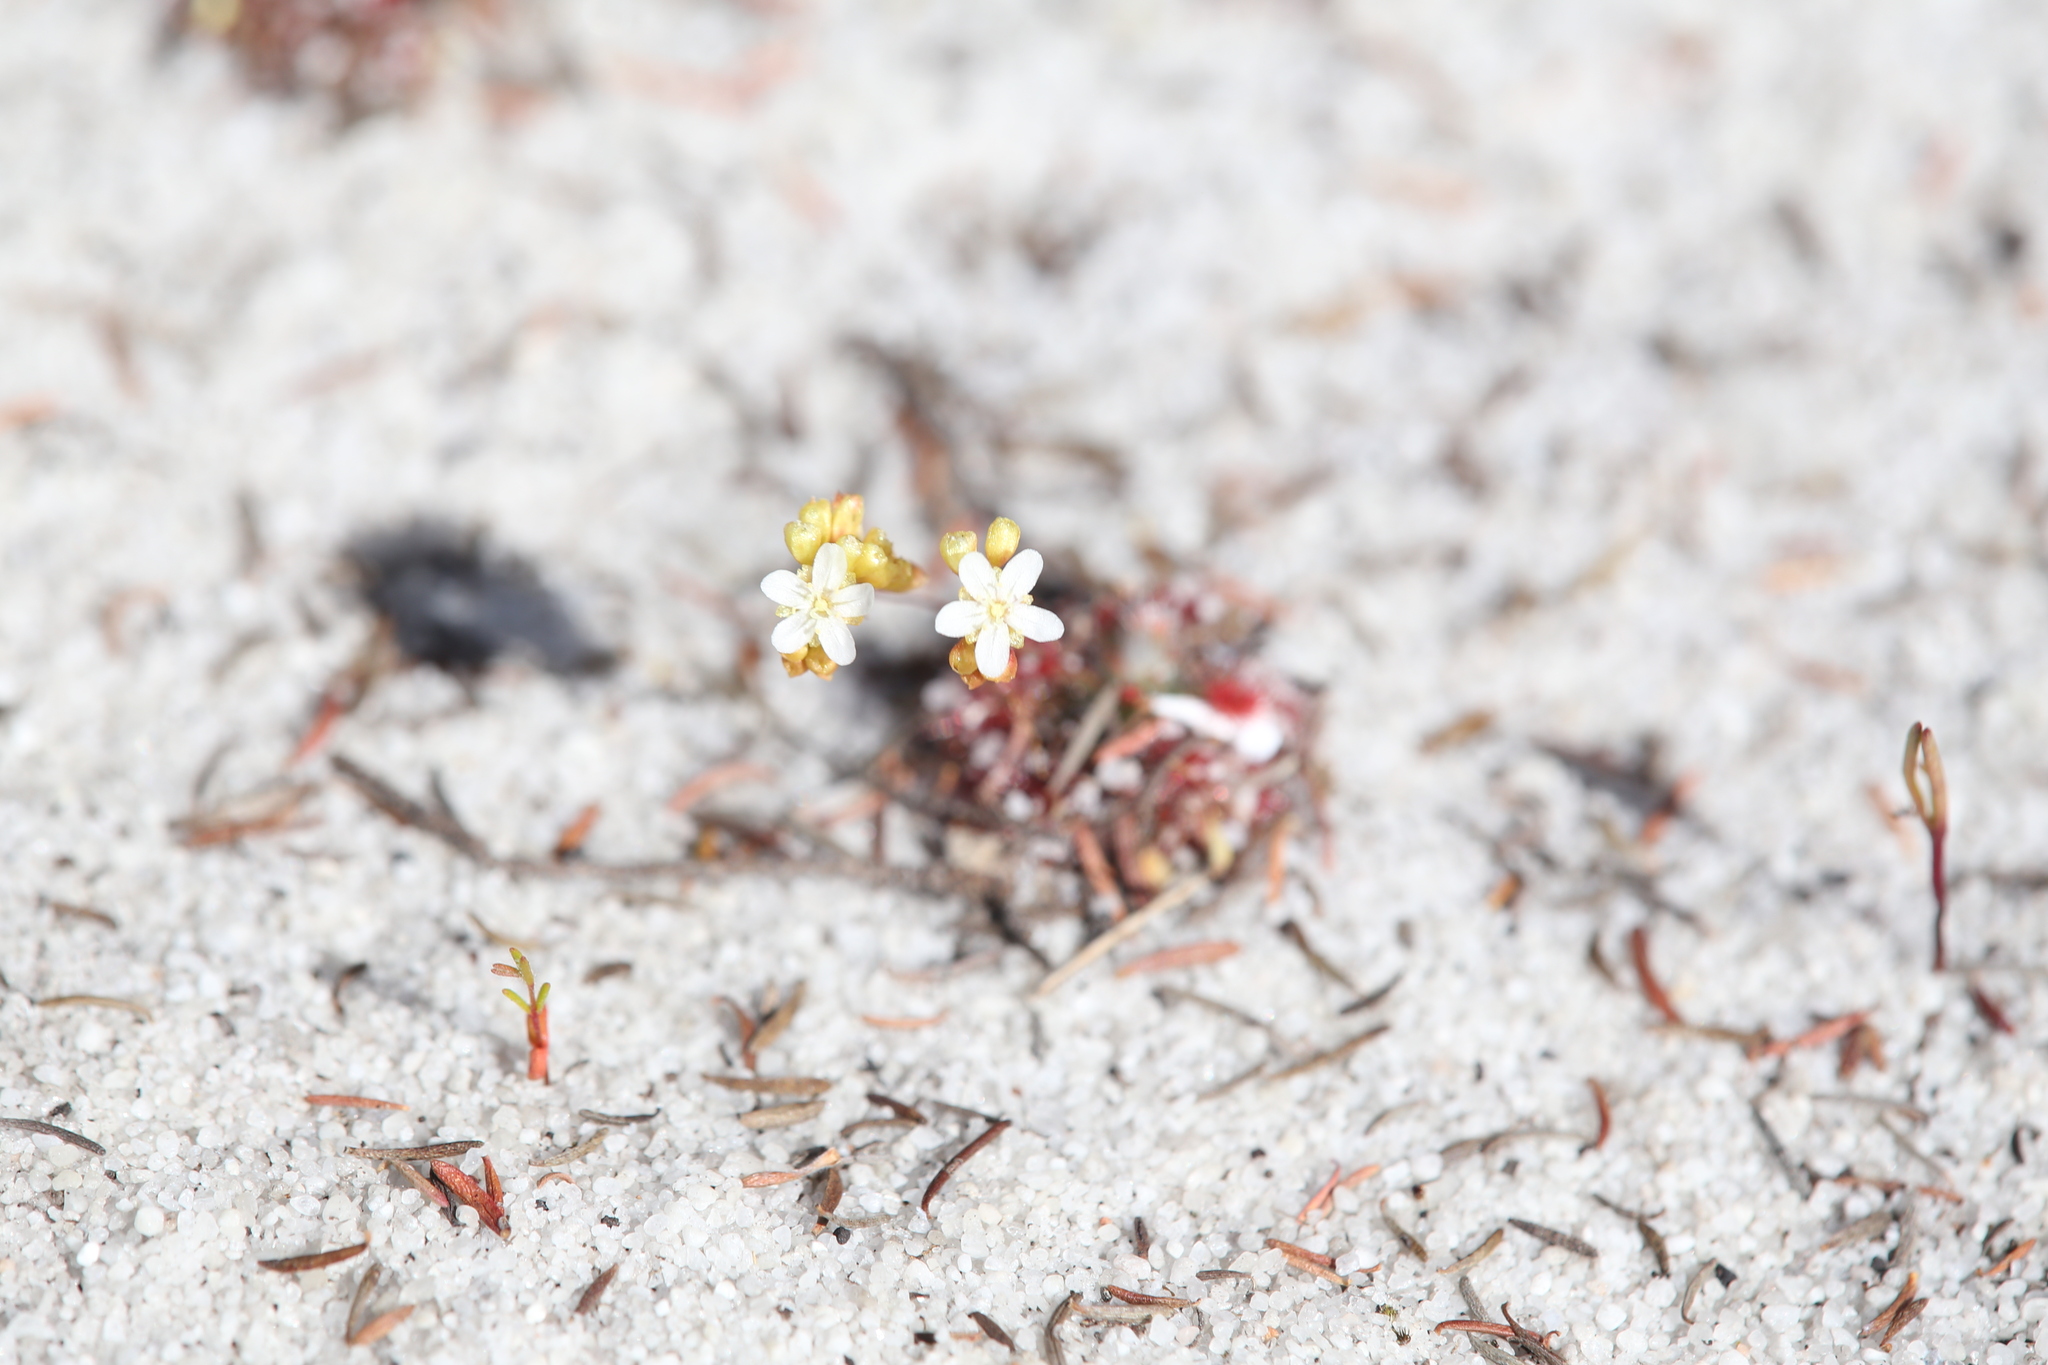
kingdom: Plantae
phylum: Tracheophyta
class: Magnoliopsida
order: Caryophyllales
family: Droseraceae
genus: Drosera
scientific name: Drosera paleacea
